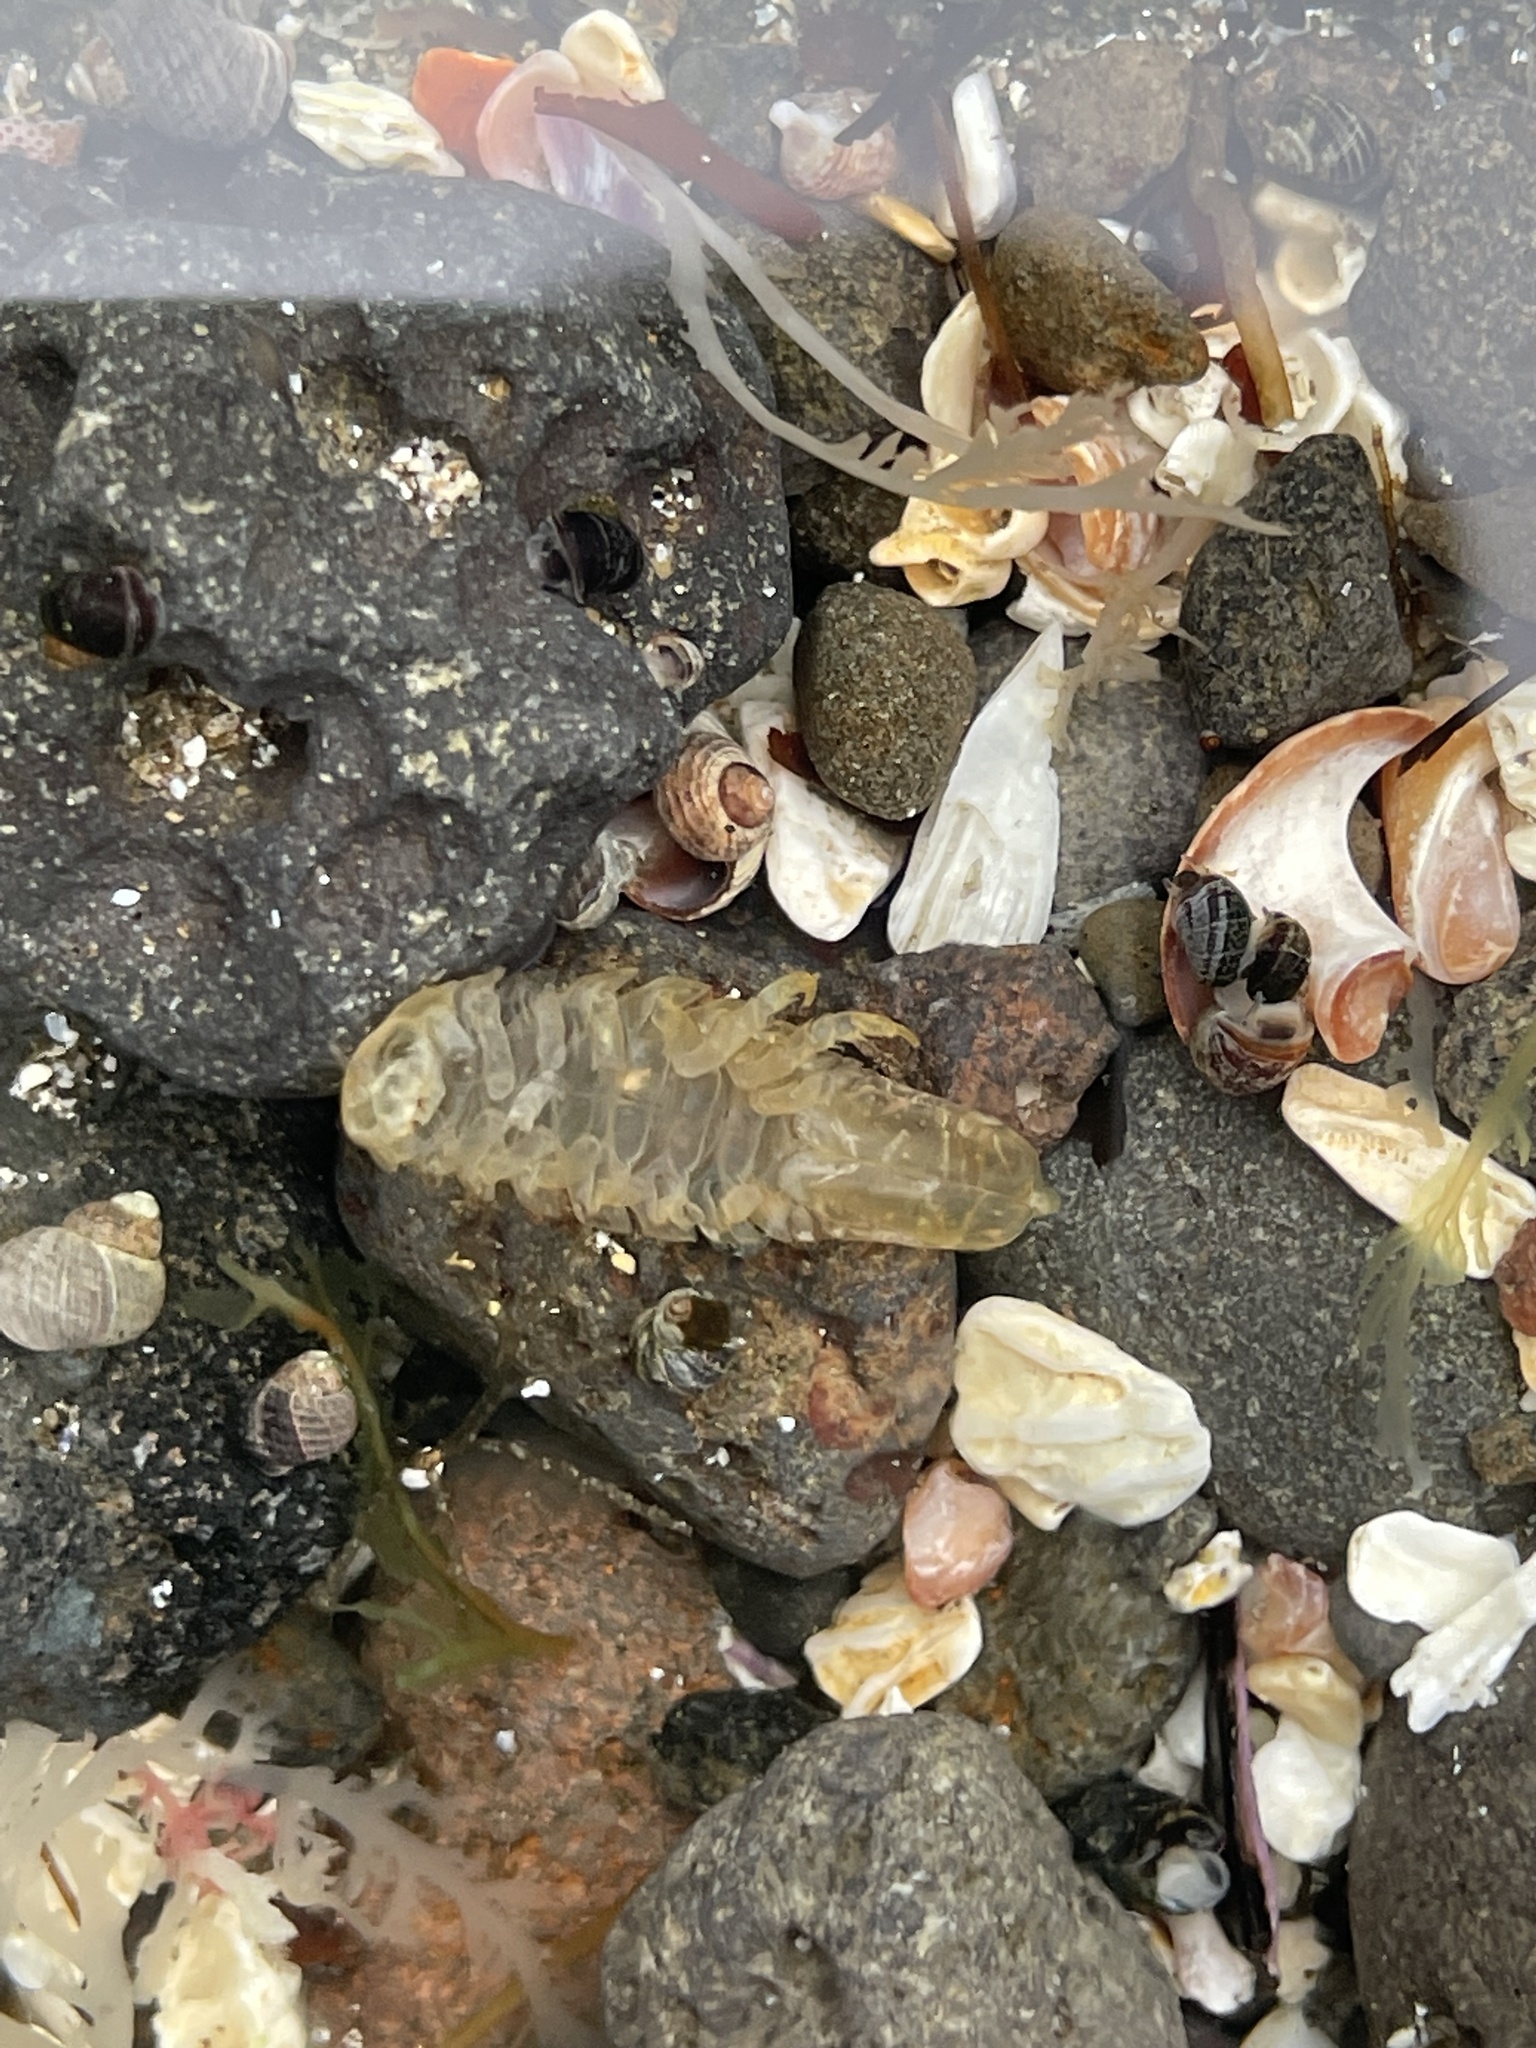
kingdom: Animalia
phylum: Arthropoda
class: Malacostraca
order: Isopoda
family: Idoteidae
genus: Idotea
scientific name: Idotea granulosa
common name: Granular marine isopod
